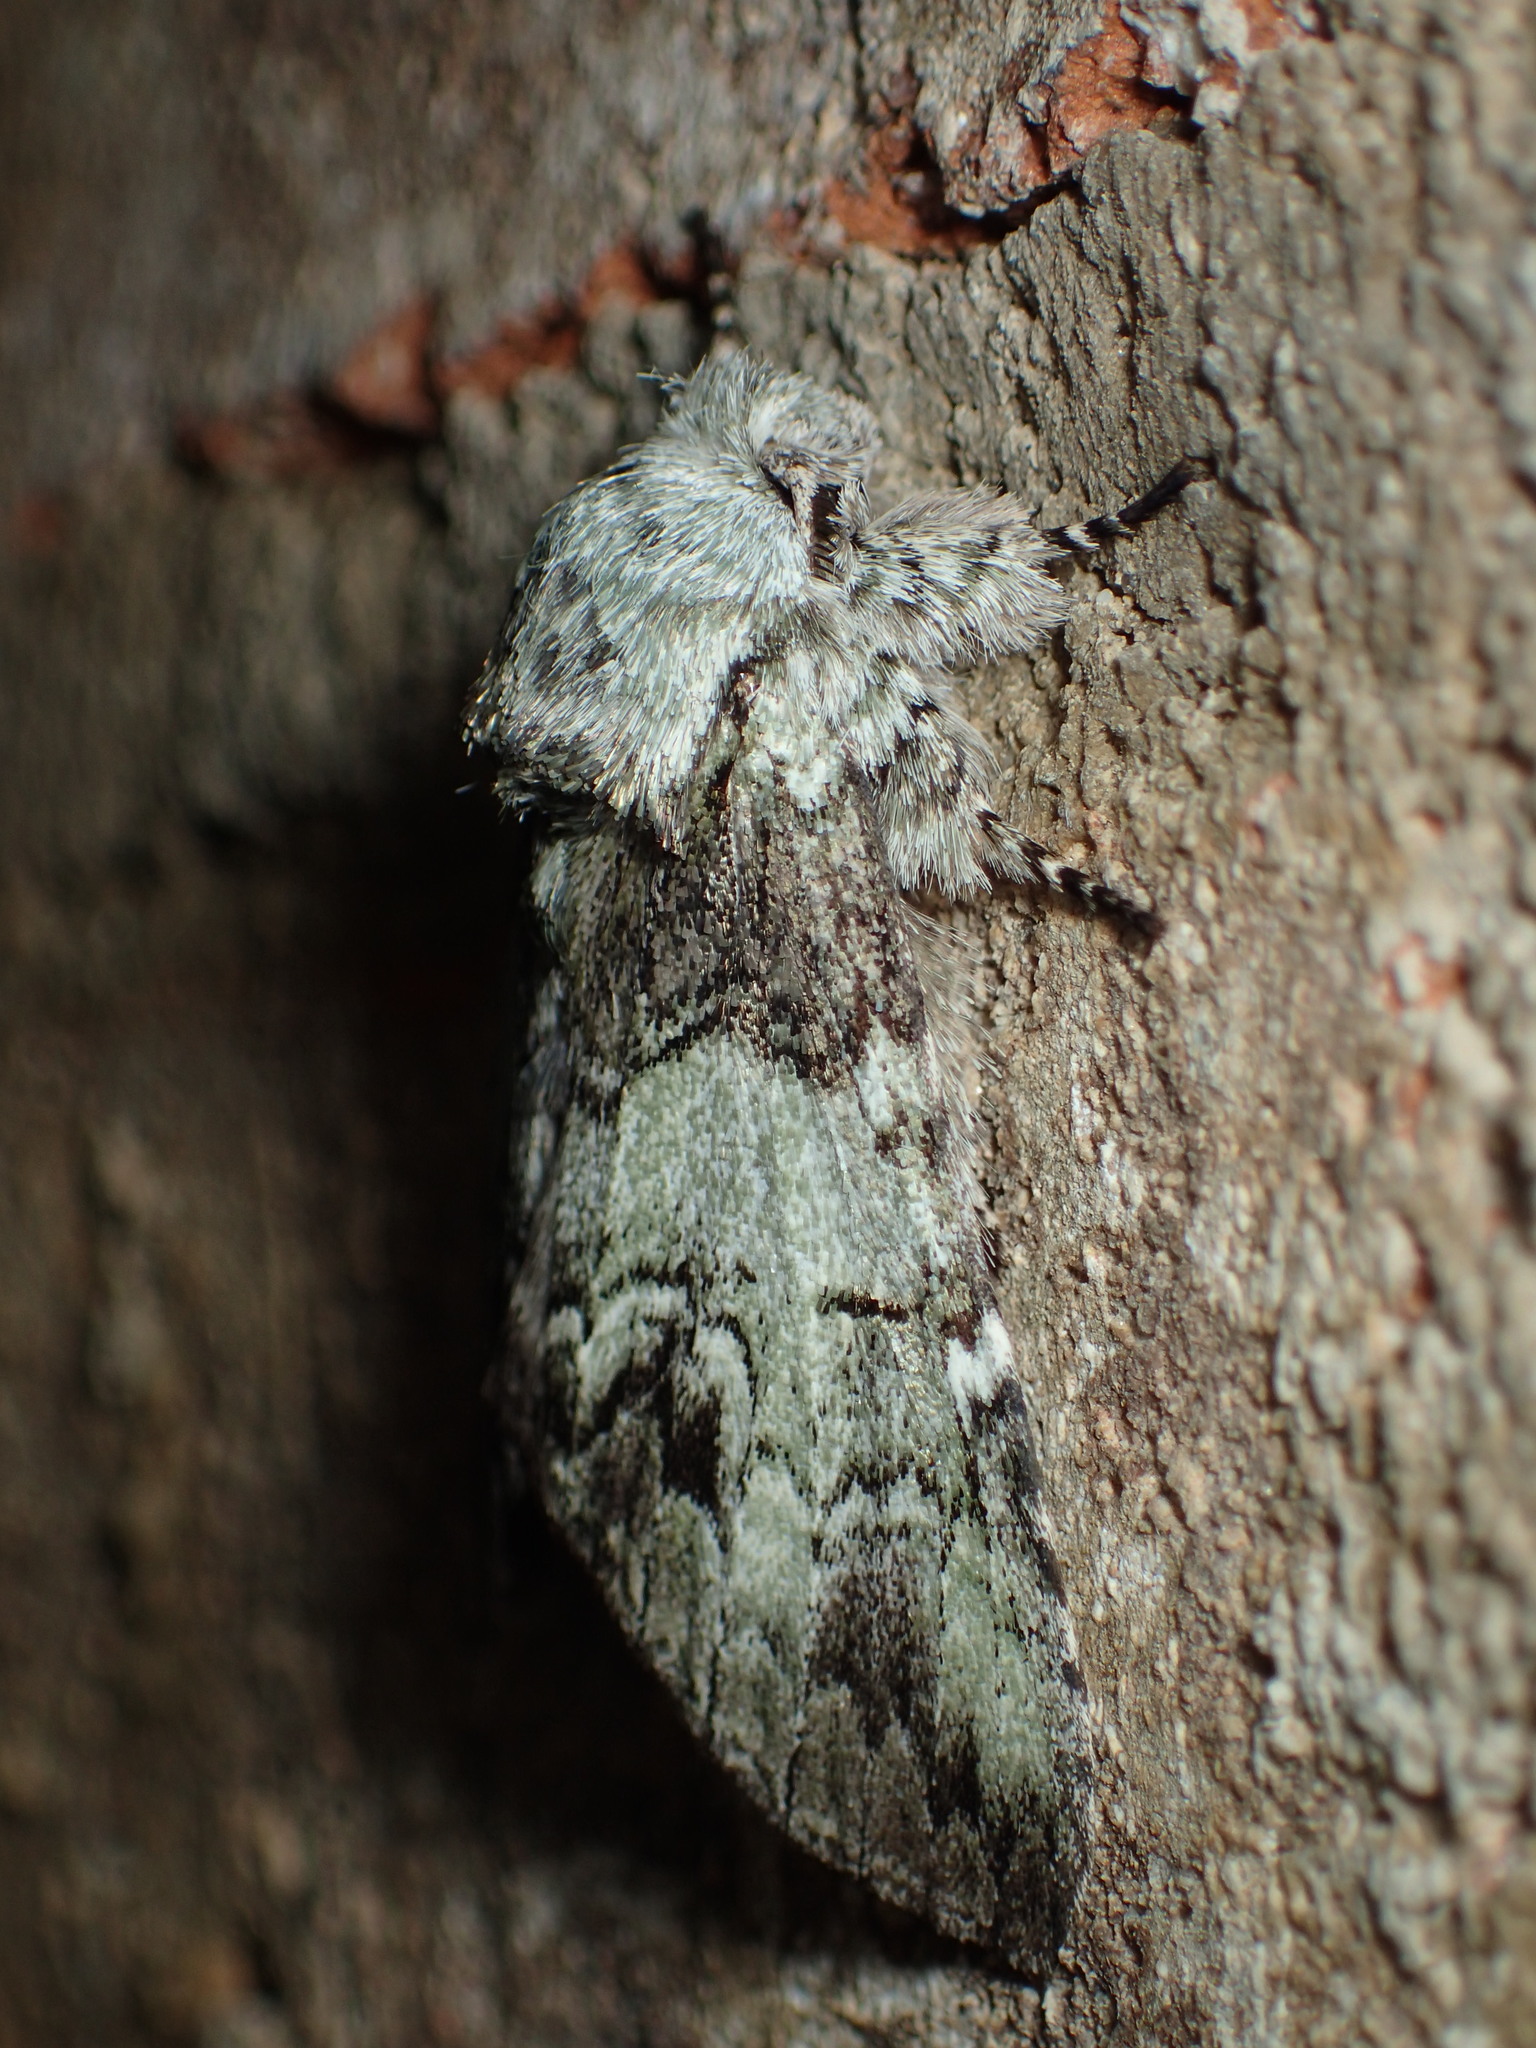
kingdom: Animalia
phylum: Arthropoda
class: Insecta
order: Lepidoptera
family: Notodontidae
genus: Macrurocampa
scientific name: Macrurocampa marthesia
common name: Mottled prominent
